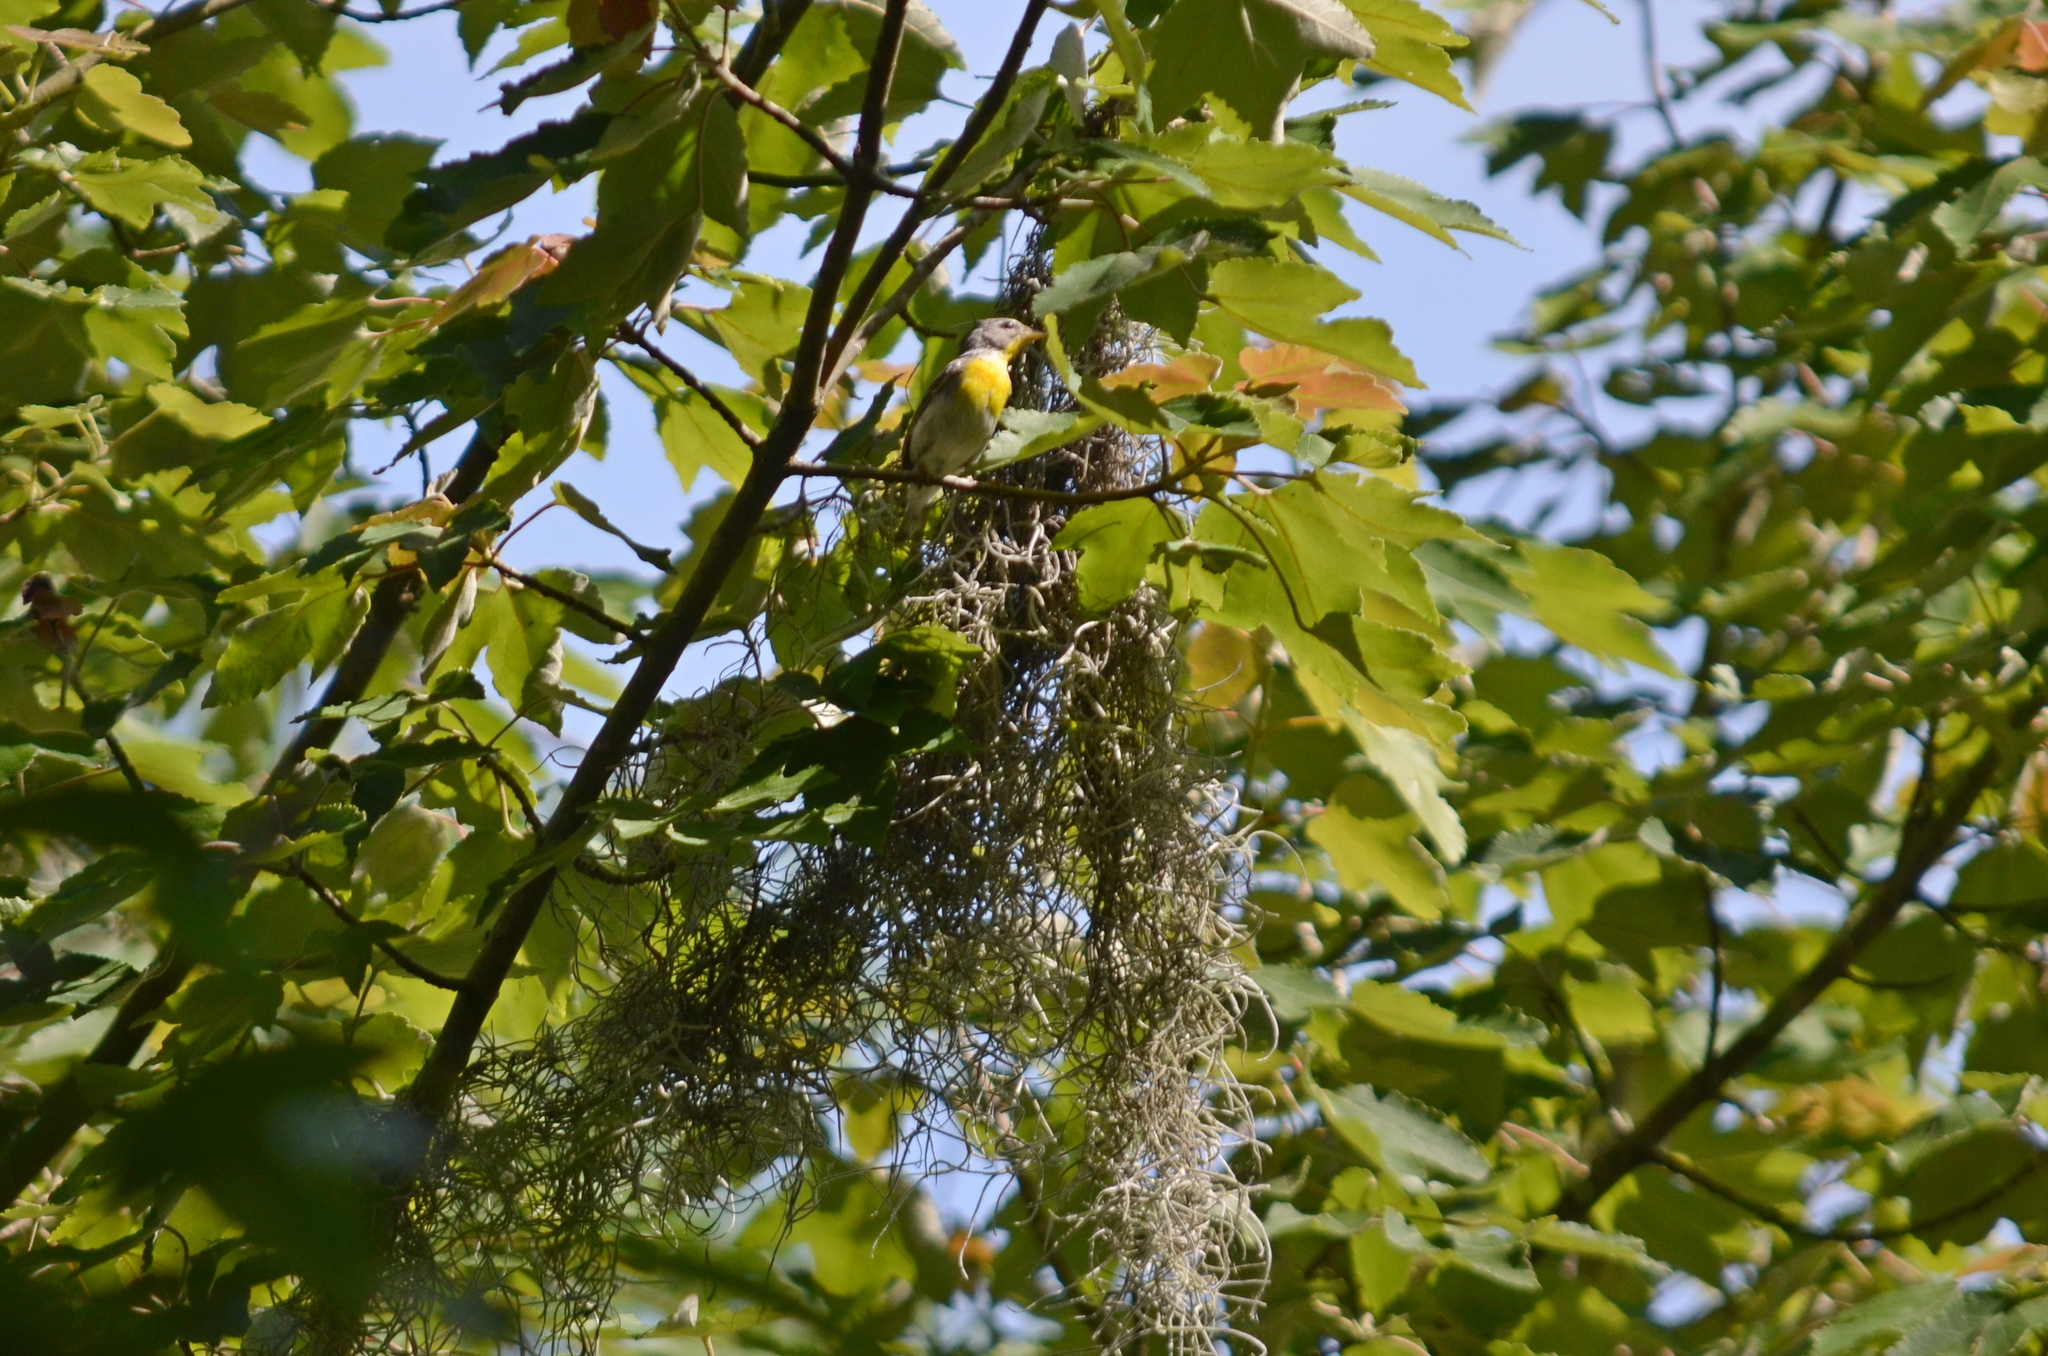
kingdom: Animalia
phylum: Chordata
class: Aves
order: Passeriformes
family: Parulidae
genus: Setophaga
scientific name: Setophaga americana
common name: Northern parula
